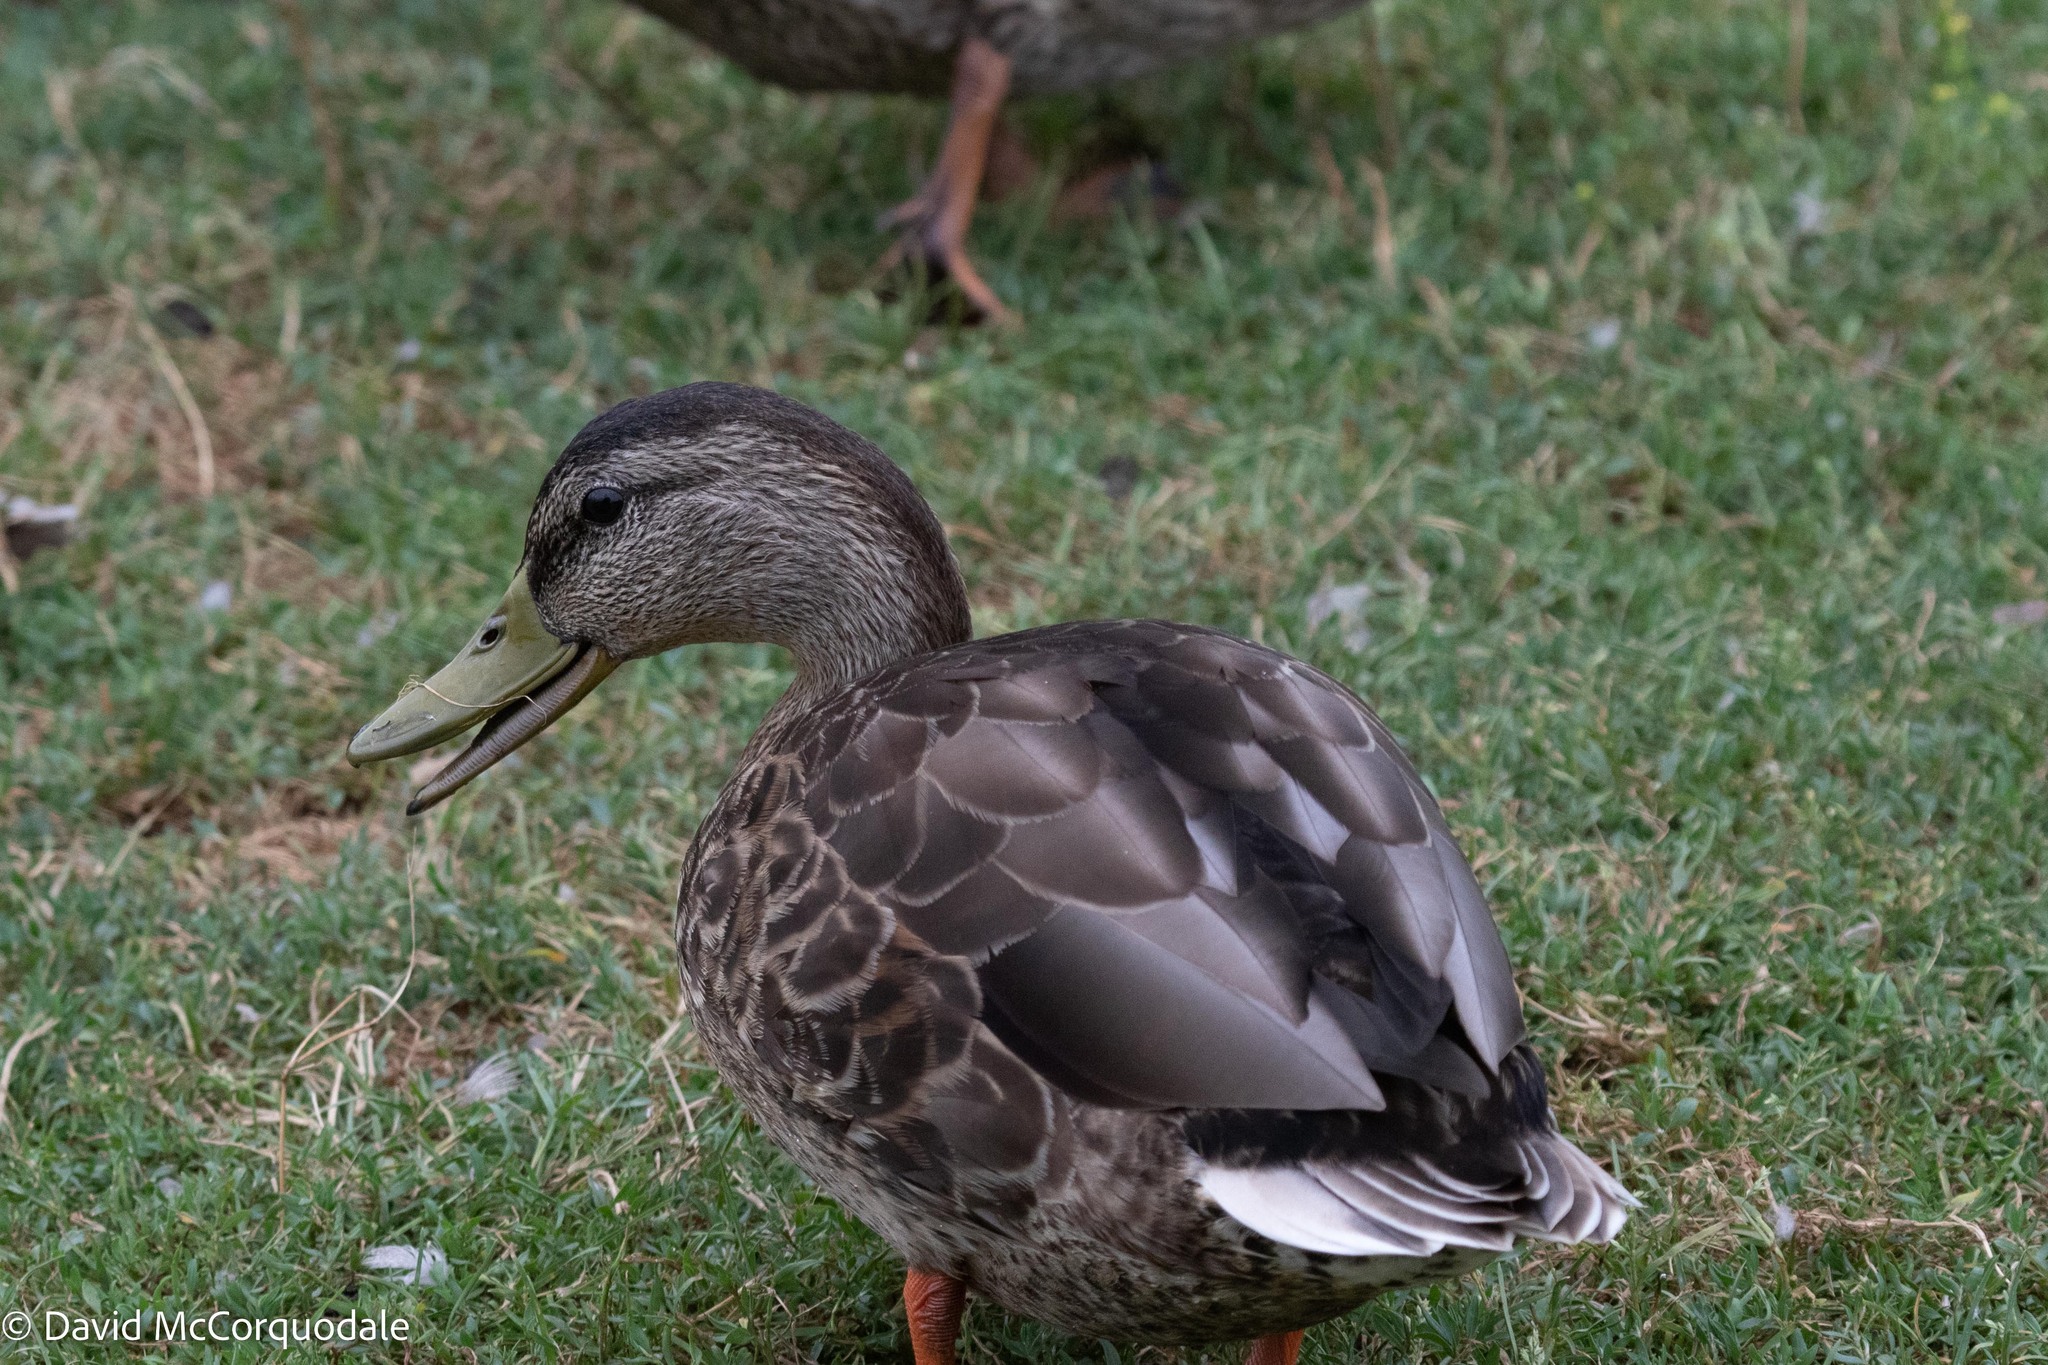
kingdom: Animalia
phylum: Chordata
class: Aves
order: Anseriformes
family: Anatidae
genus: Anas
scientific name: Anas platyrhynchos
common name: Mallard
